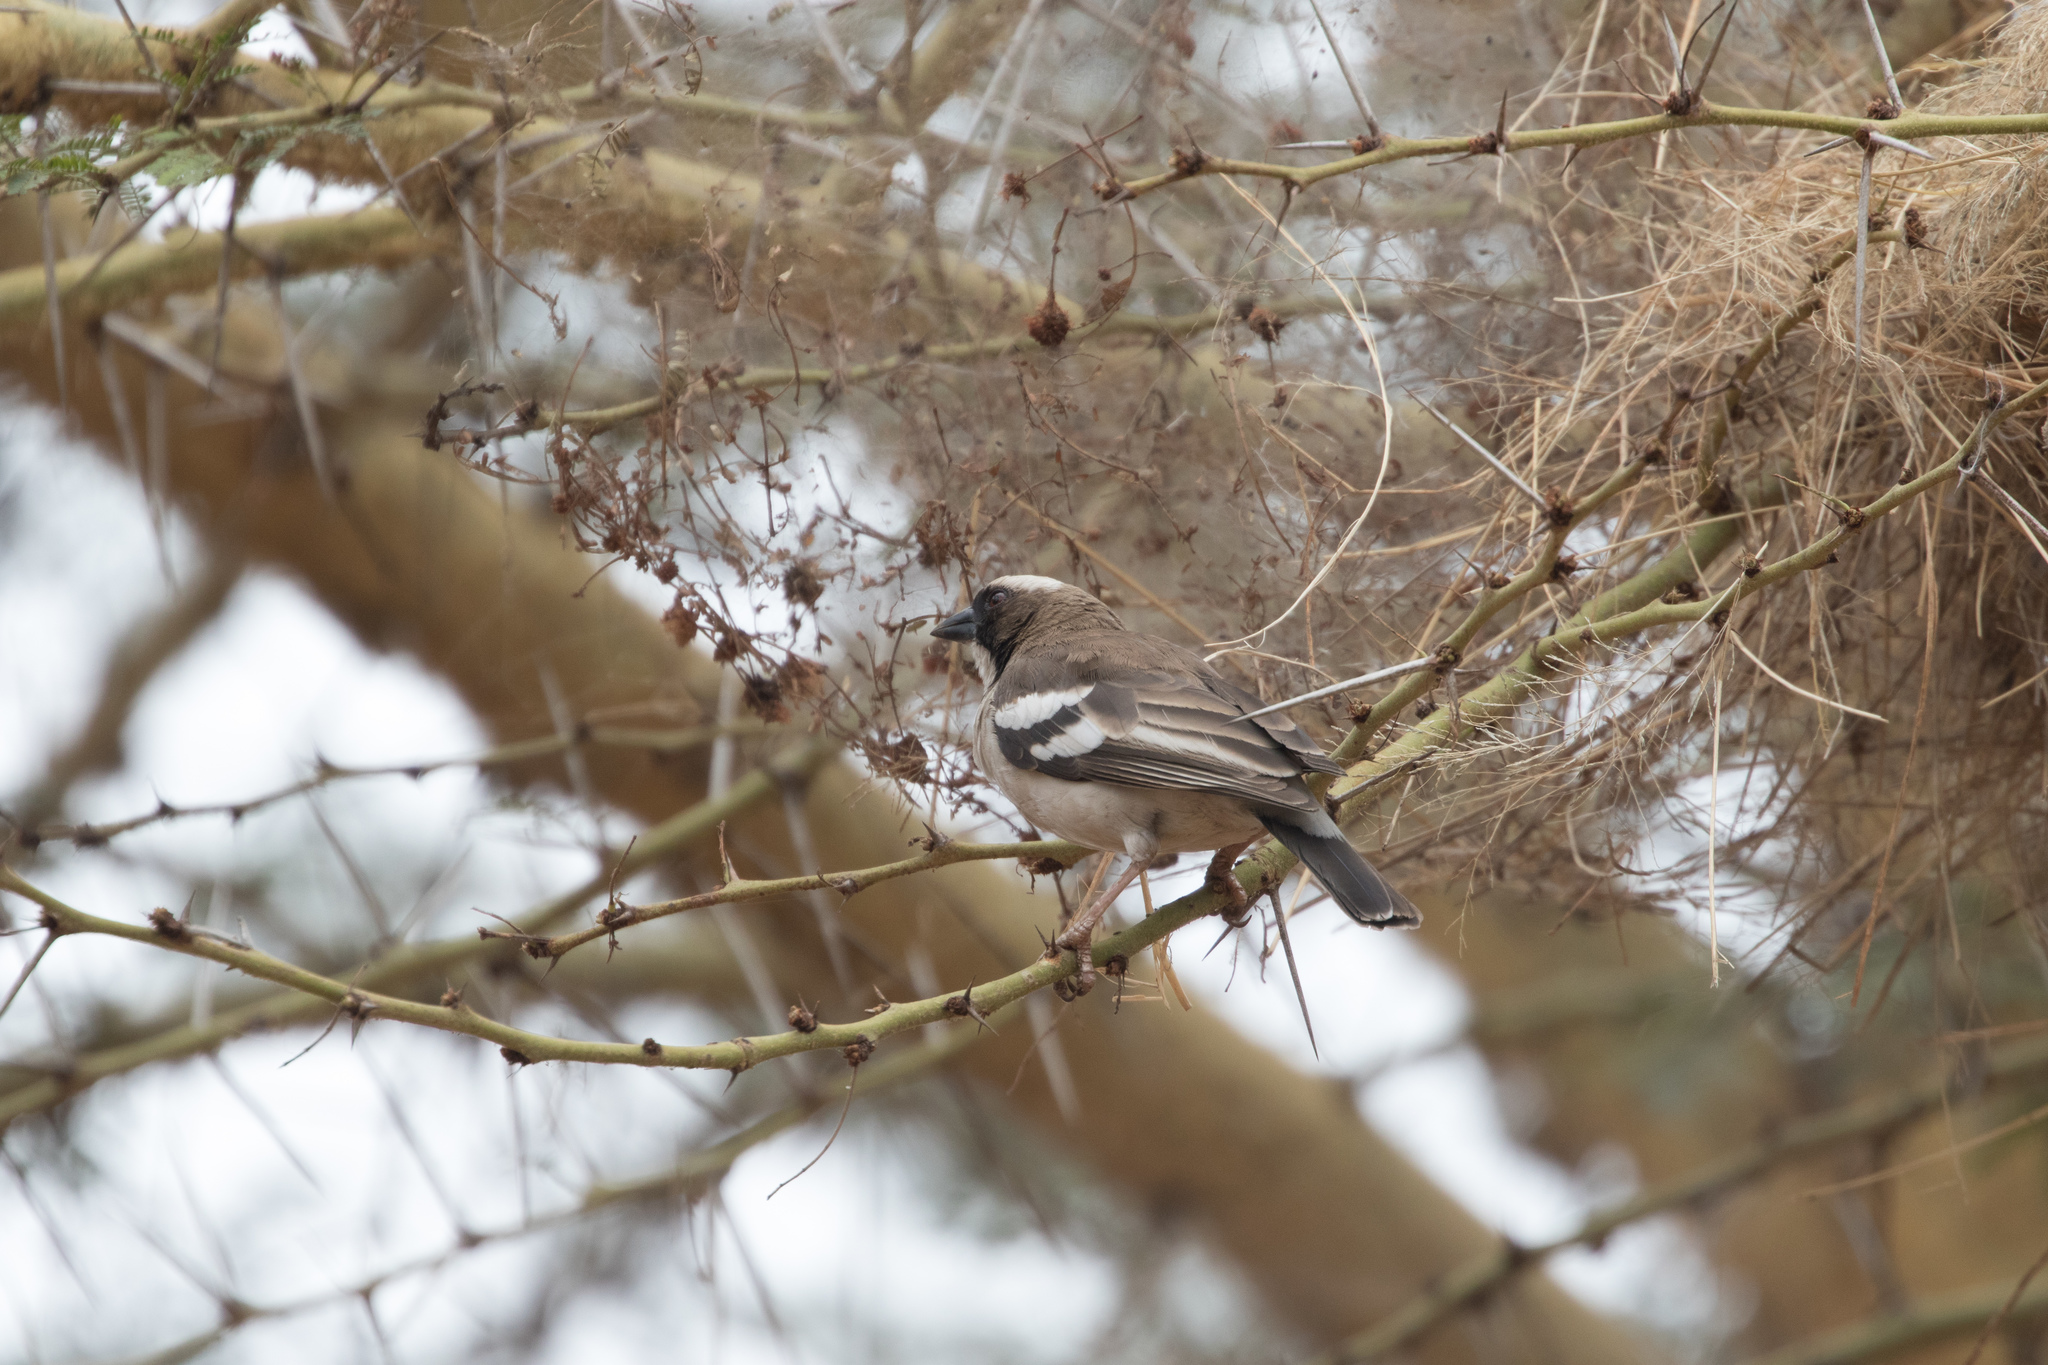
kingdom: Animalia
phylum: Chordata
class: Aves
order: Passeriformes
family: Passeridae
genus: Plocepasser
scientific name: Plocepasser mahali
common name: White-browed sparrow-weaver
